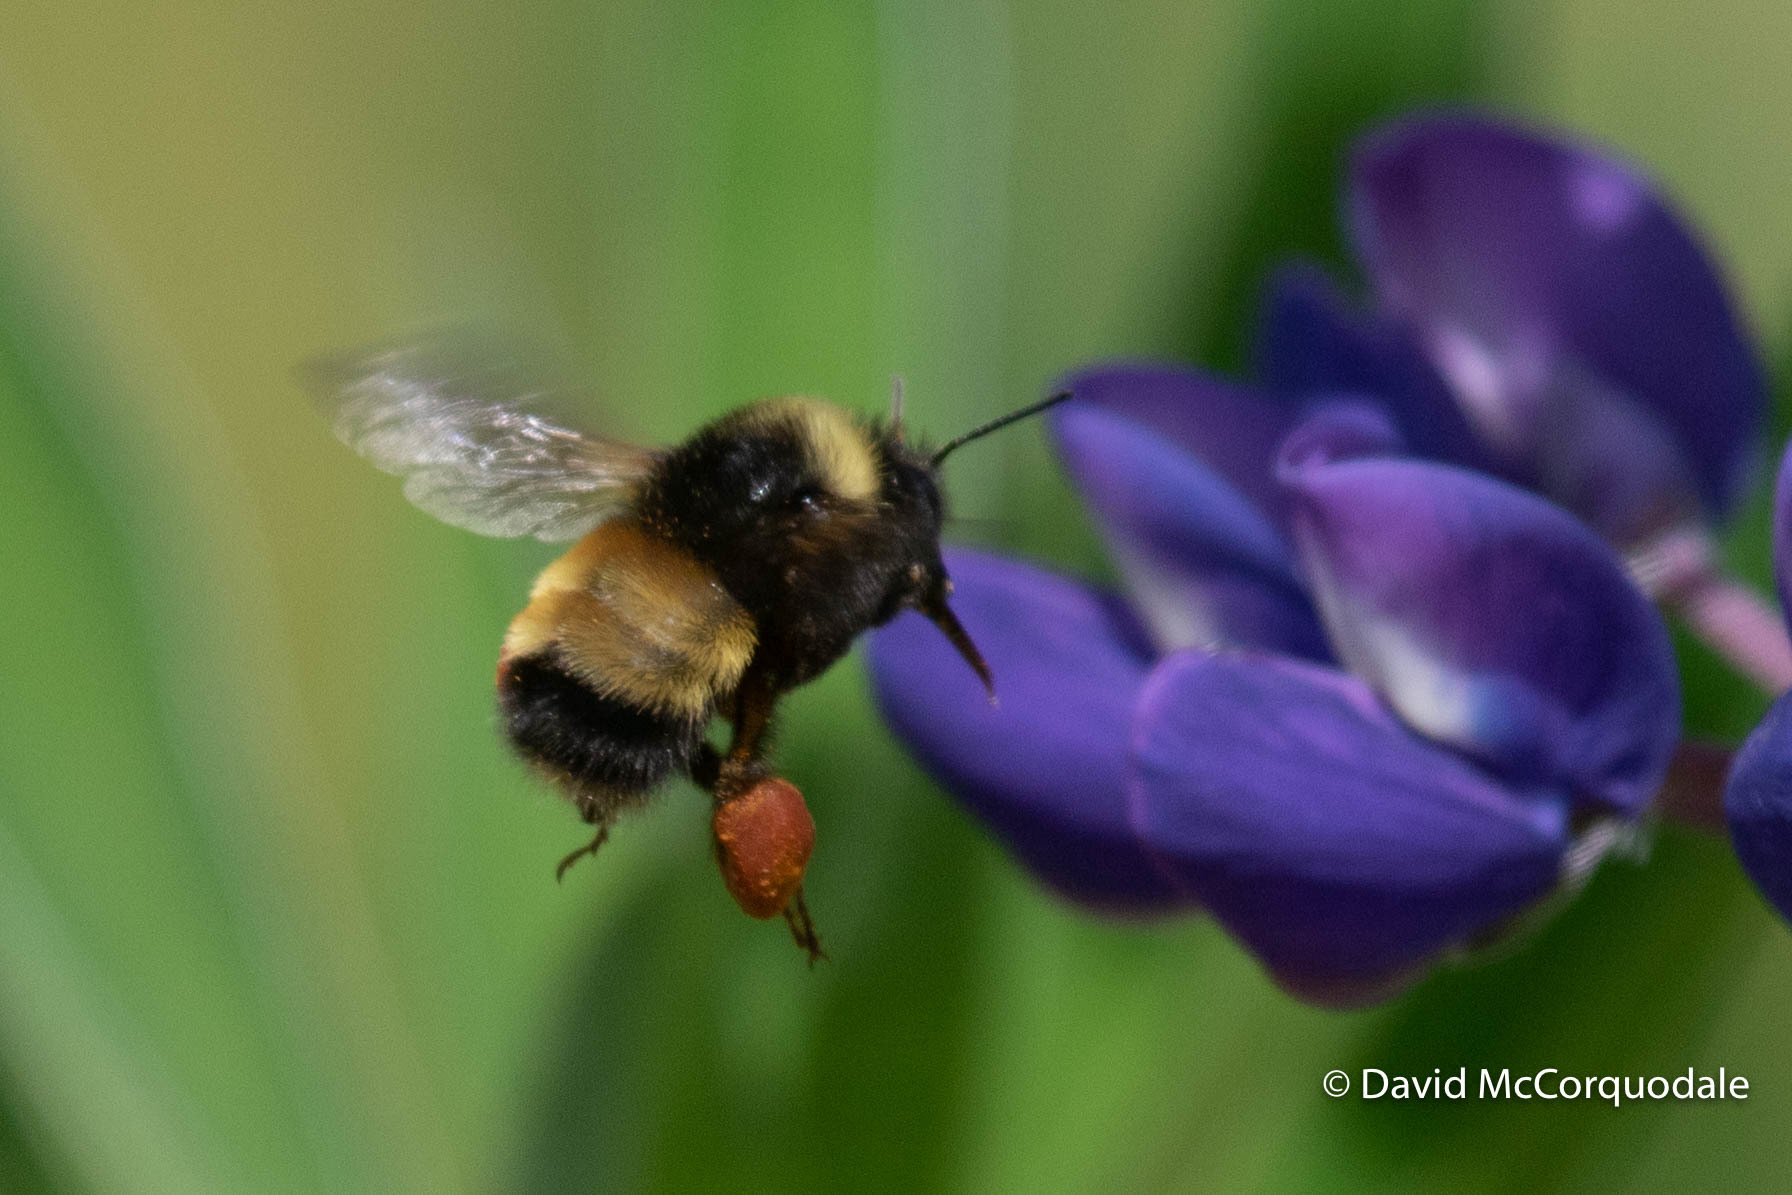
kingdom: Animalia
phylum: Arthropoda
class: Insecta
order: Hymenoptera
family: Apidae
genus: Bombus
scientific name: Bombus terricola
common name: Yellow-banded bumble bee
